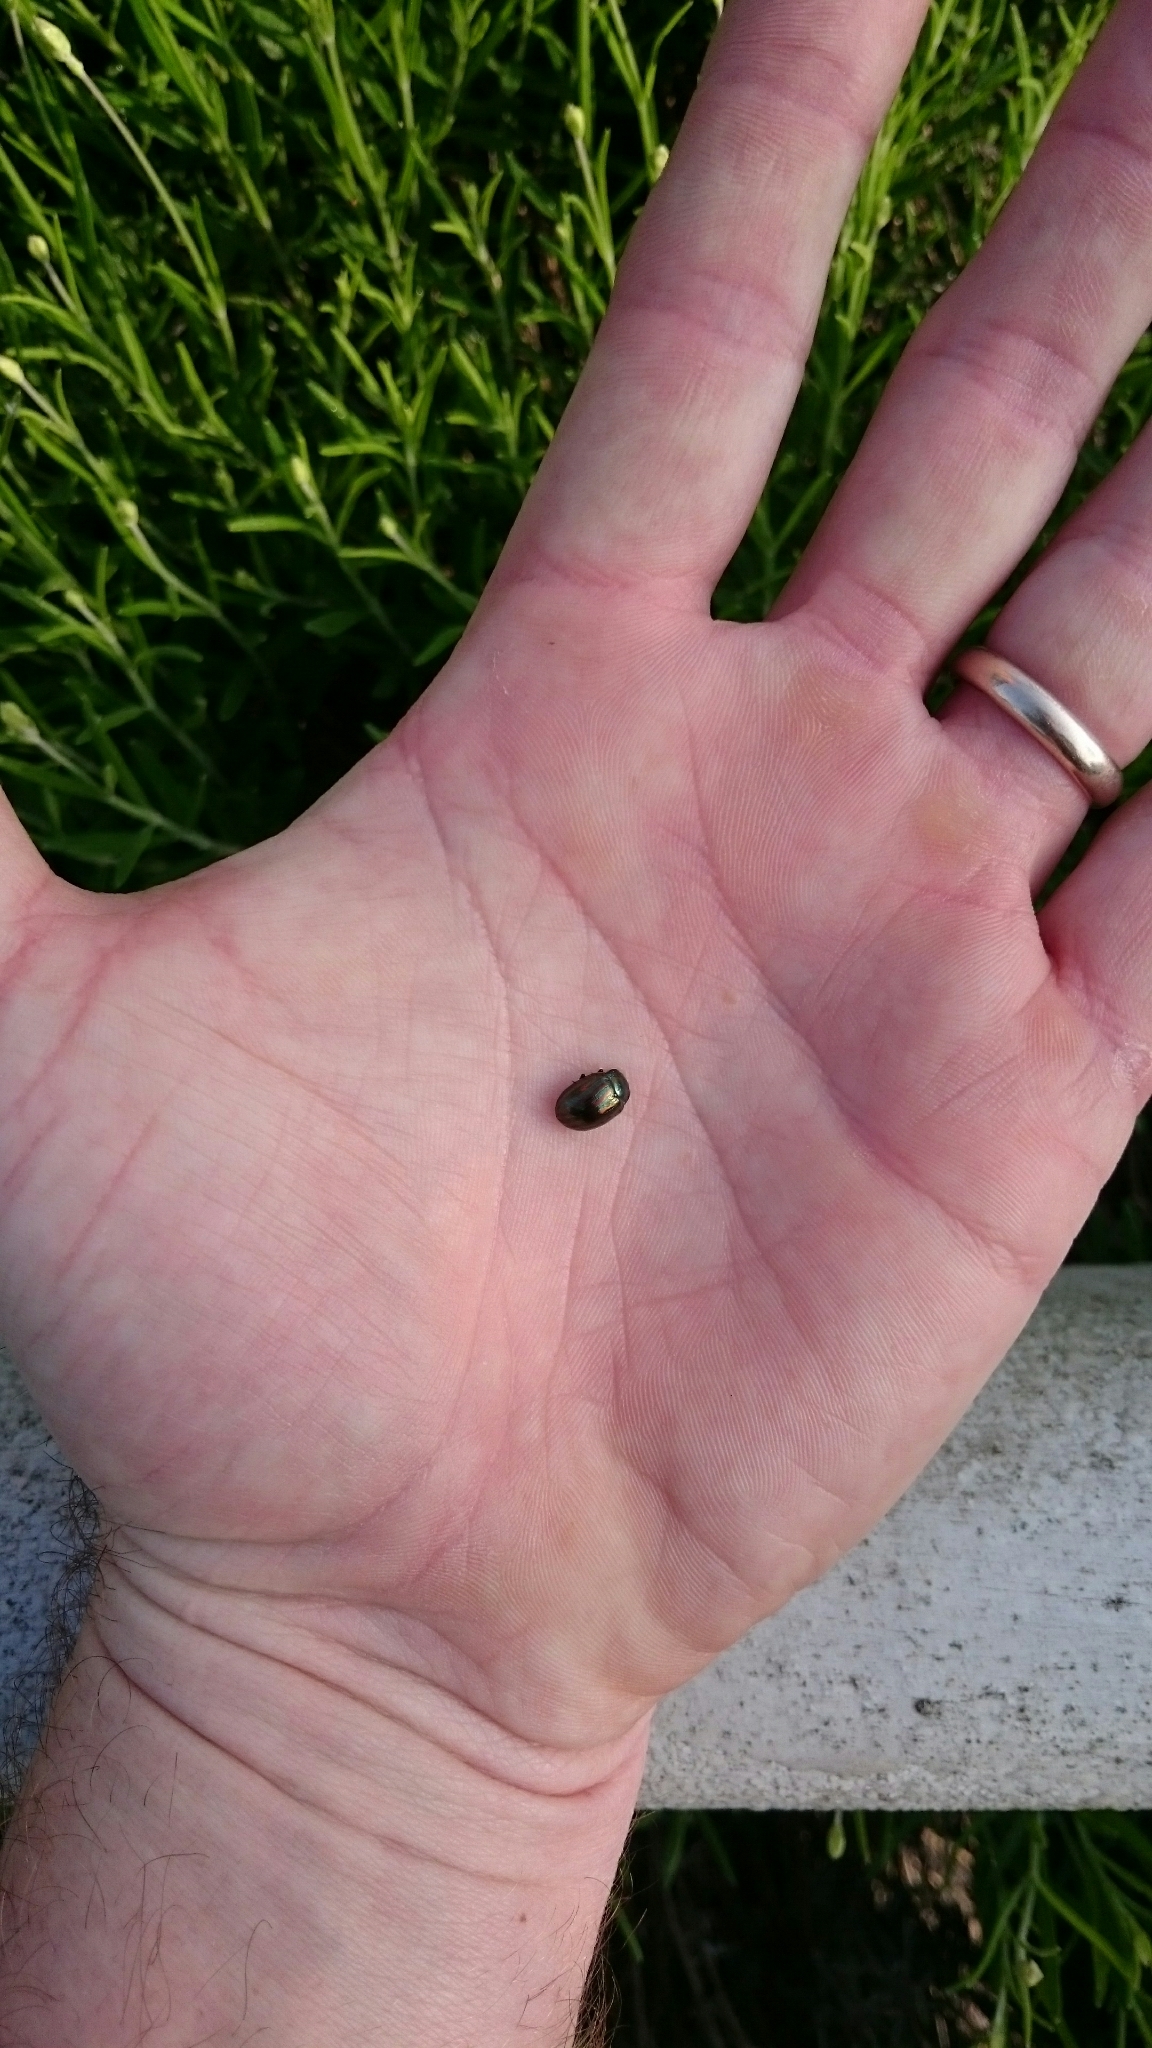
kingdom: Animalia
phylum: Arthropoda
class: Insecta
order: Coleoptera
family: Chrysomelidae
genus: Chrysolina
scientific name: Chrysolina americana
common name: Rosemary beetle
